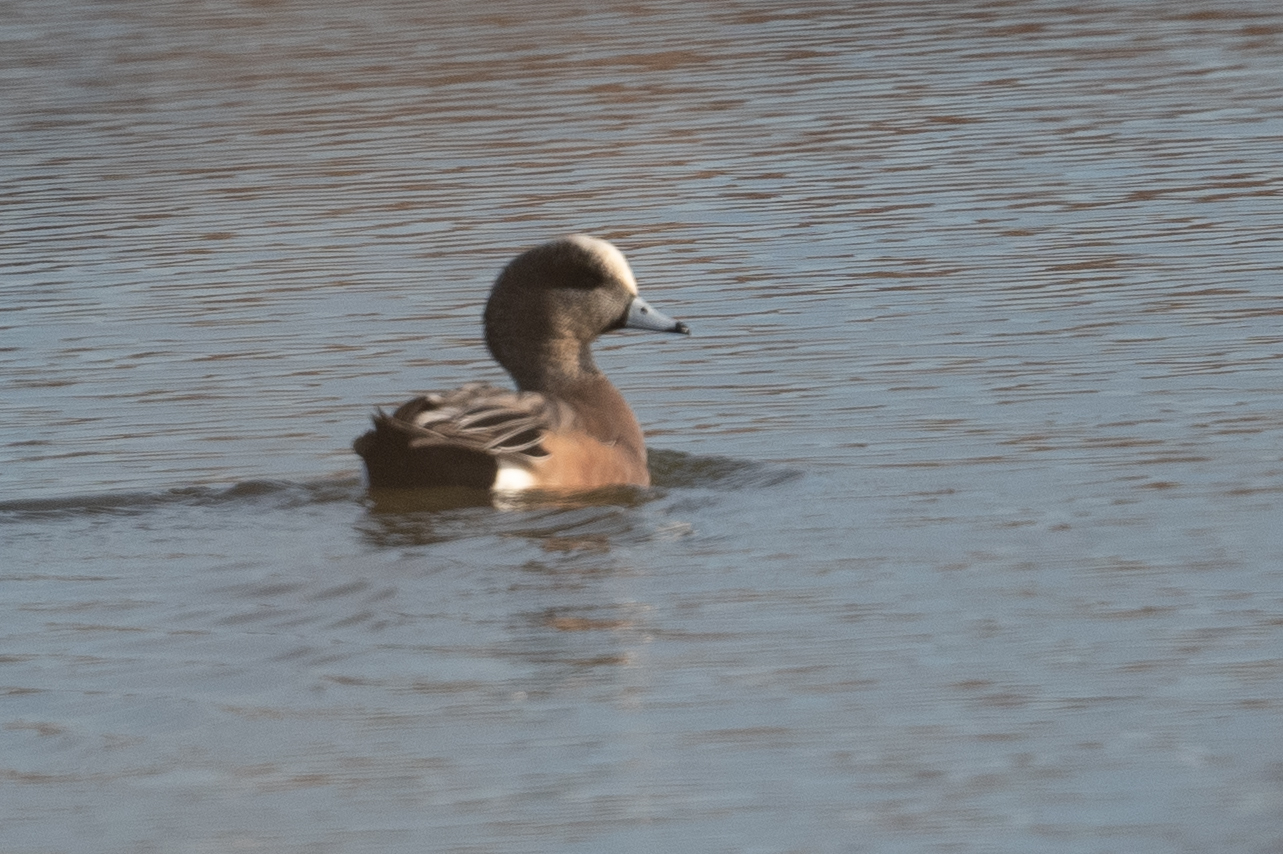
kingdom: Animalia
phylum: Chordata
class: Aves
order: Anseriformes
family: Anatidae
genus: Mareca
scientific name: Mareca americana
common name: American wigeon
